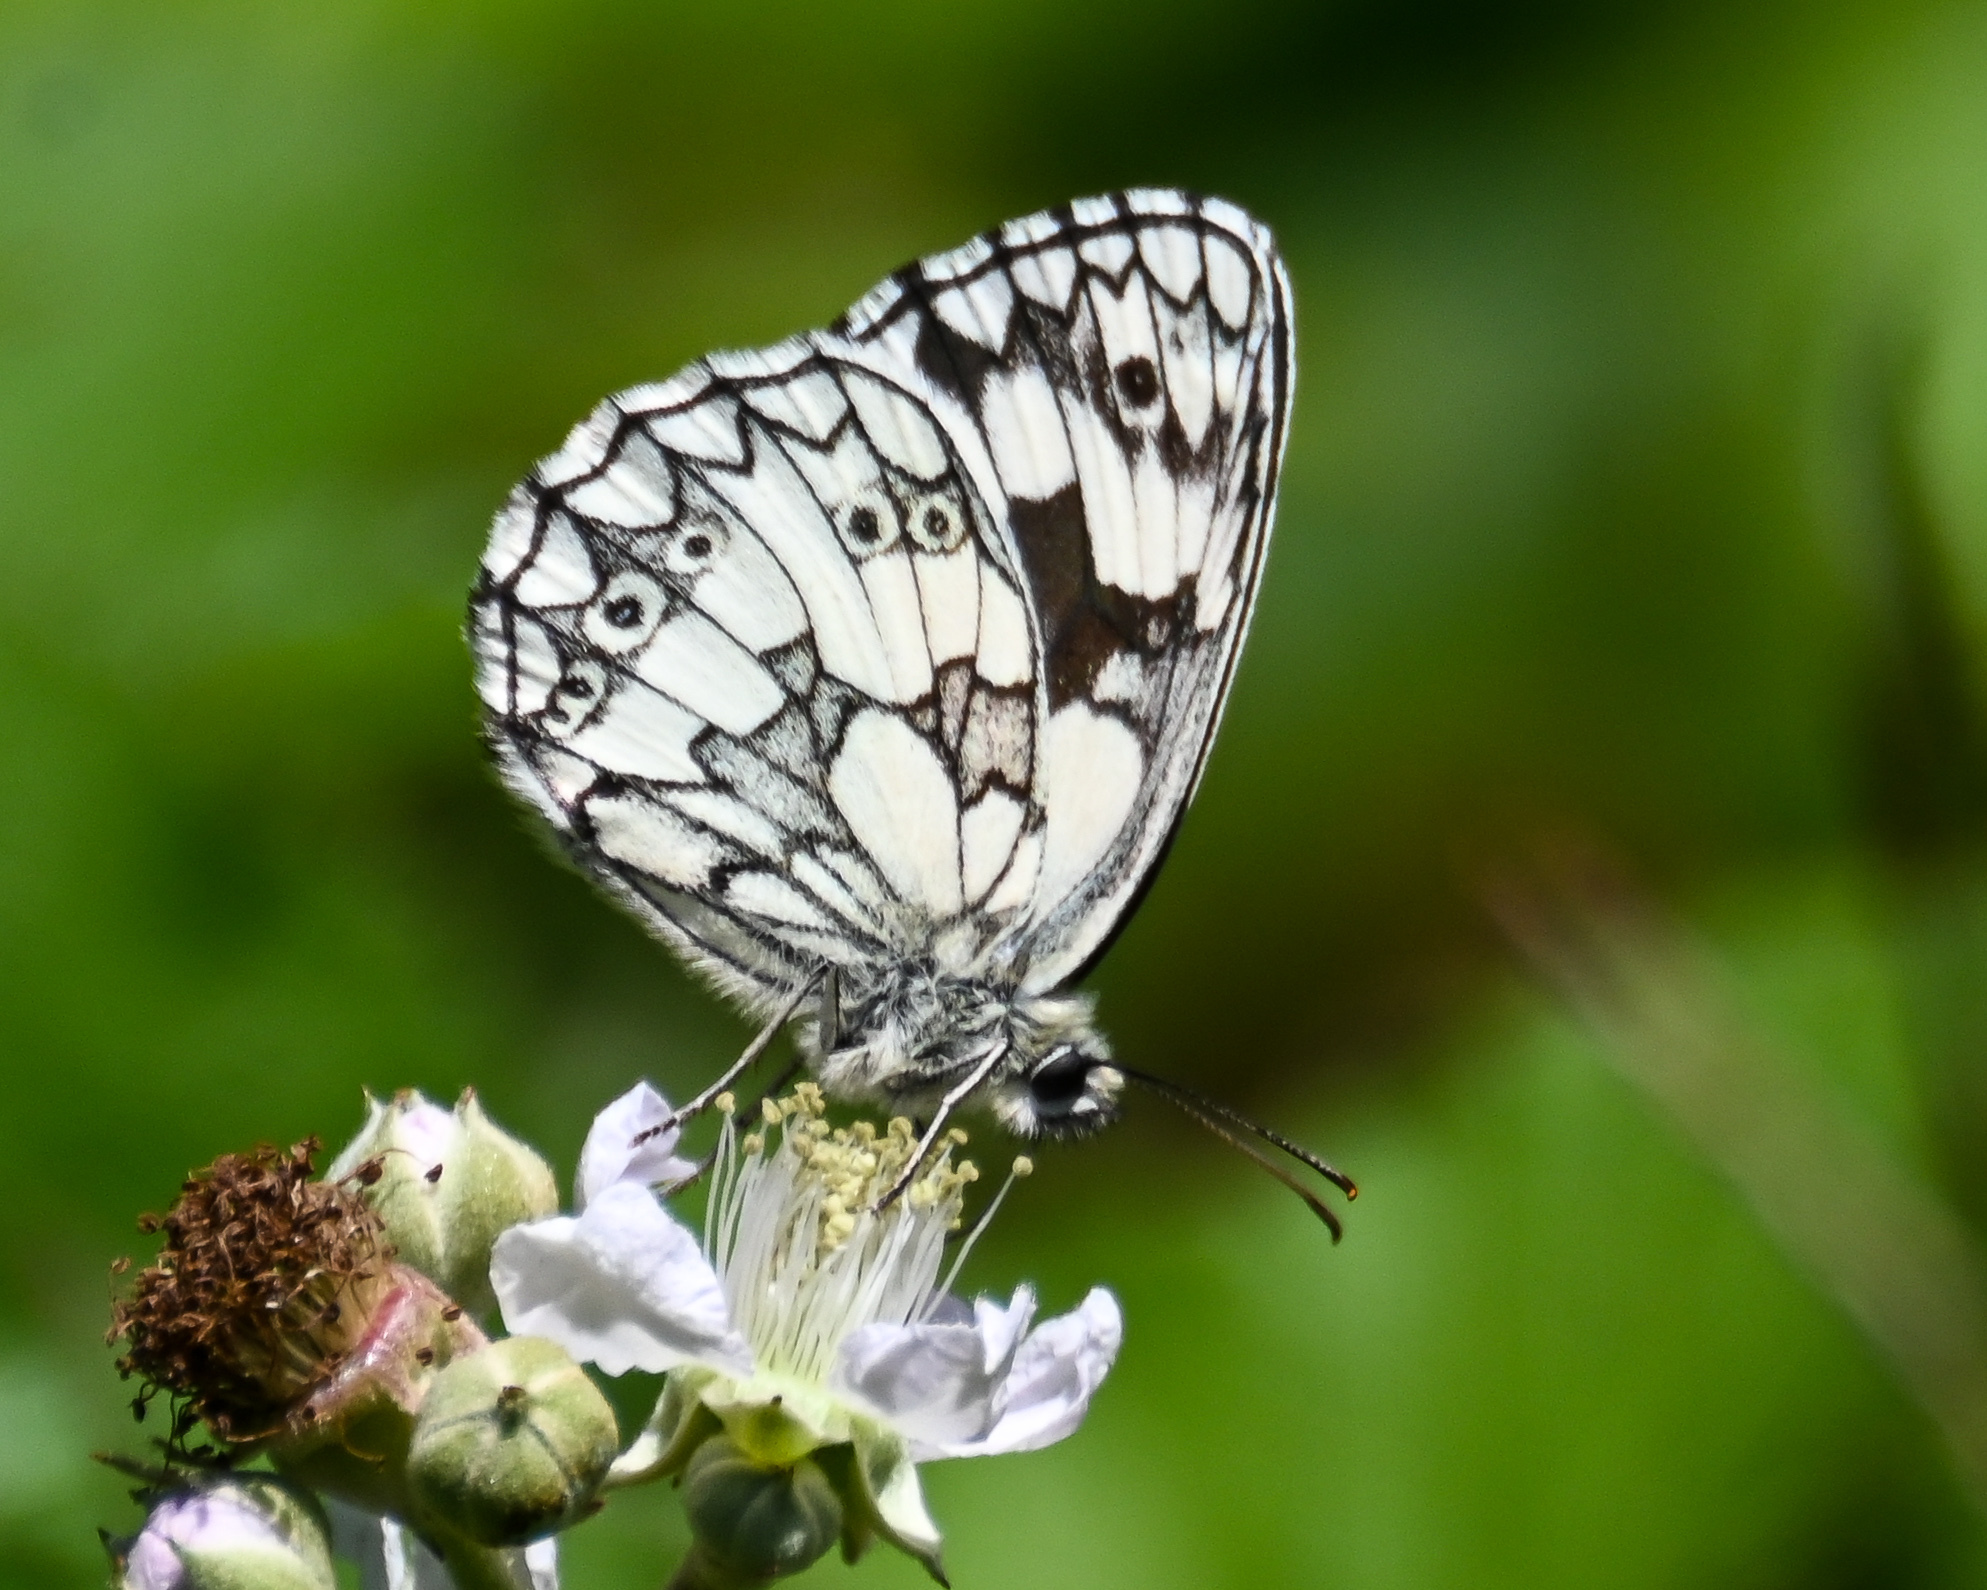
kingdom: Animalia
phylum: Arthropoda
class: Insecta
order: Lepidoptera
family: Nymphalidae
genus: Melanargia
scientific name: Melanargia galathea
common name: Marbled white
